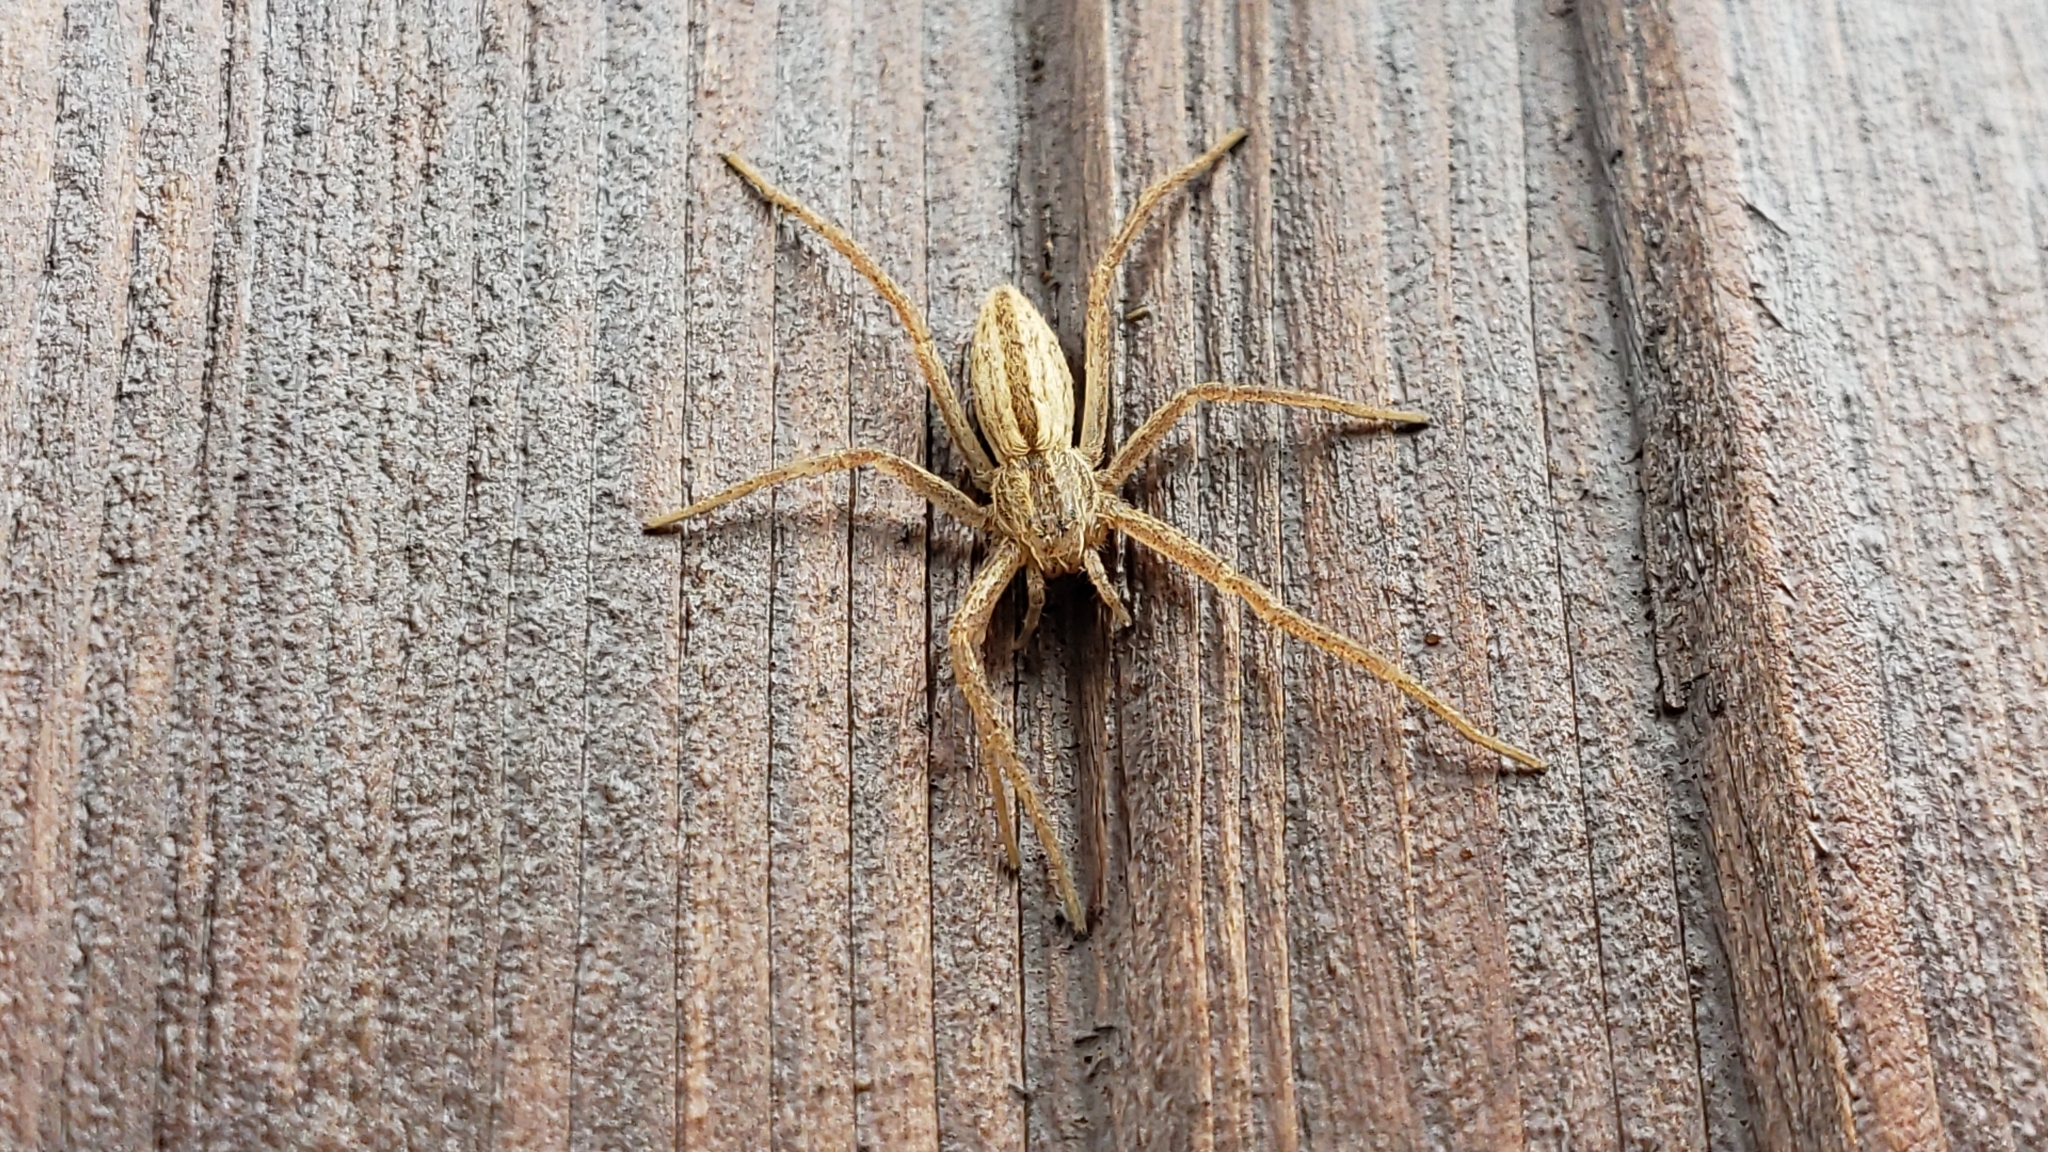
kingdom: Animalia
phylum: Arthropoda
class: Arachnida
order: Araneae
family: Philodromidae
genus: Tibellus
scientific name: Tibellus oblongus
